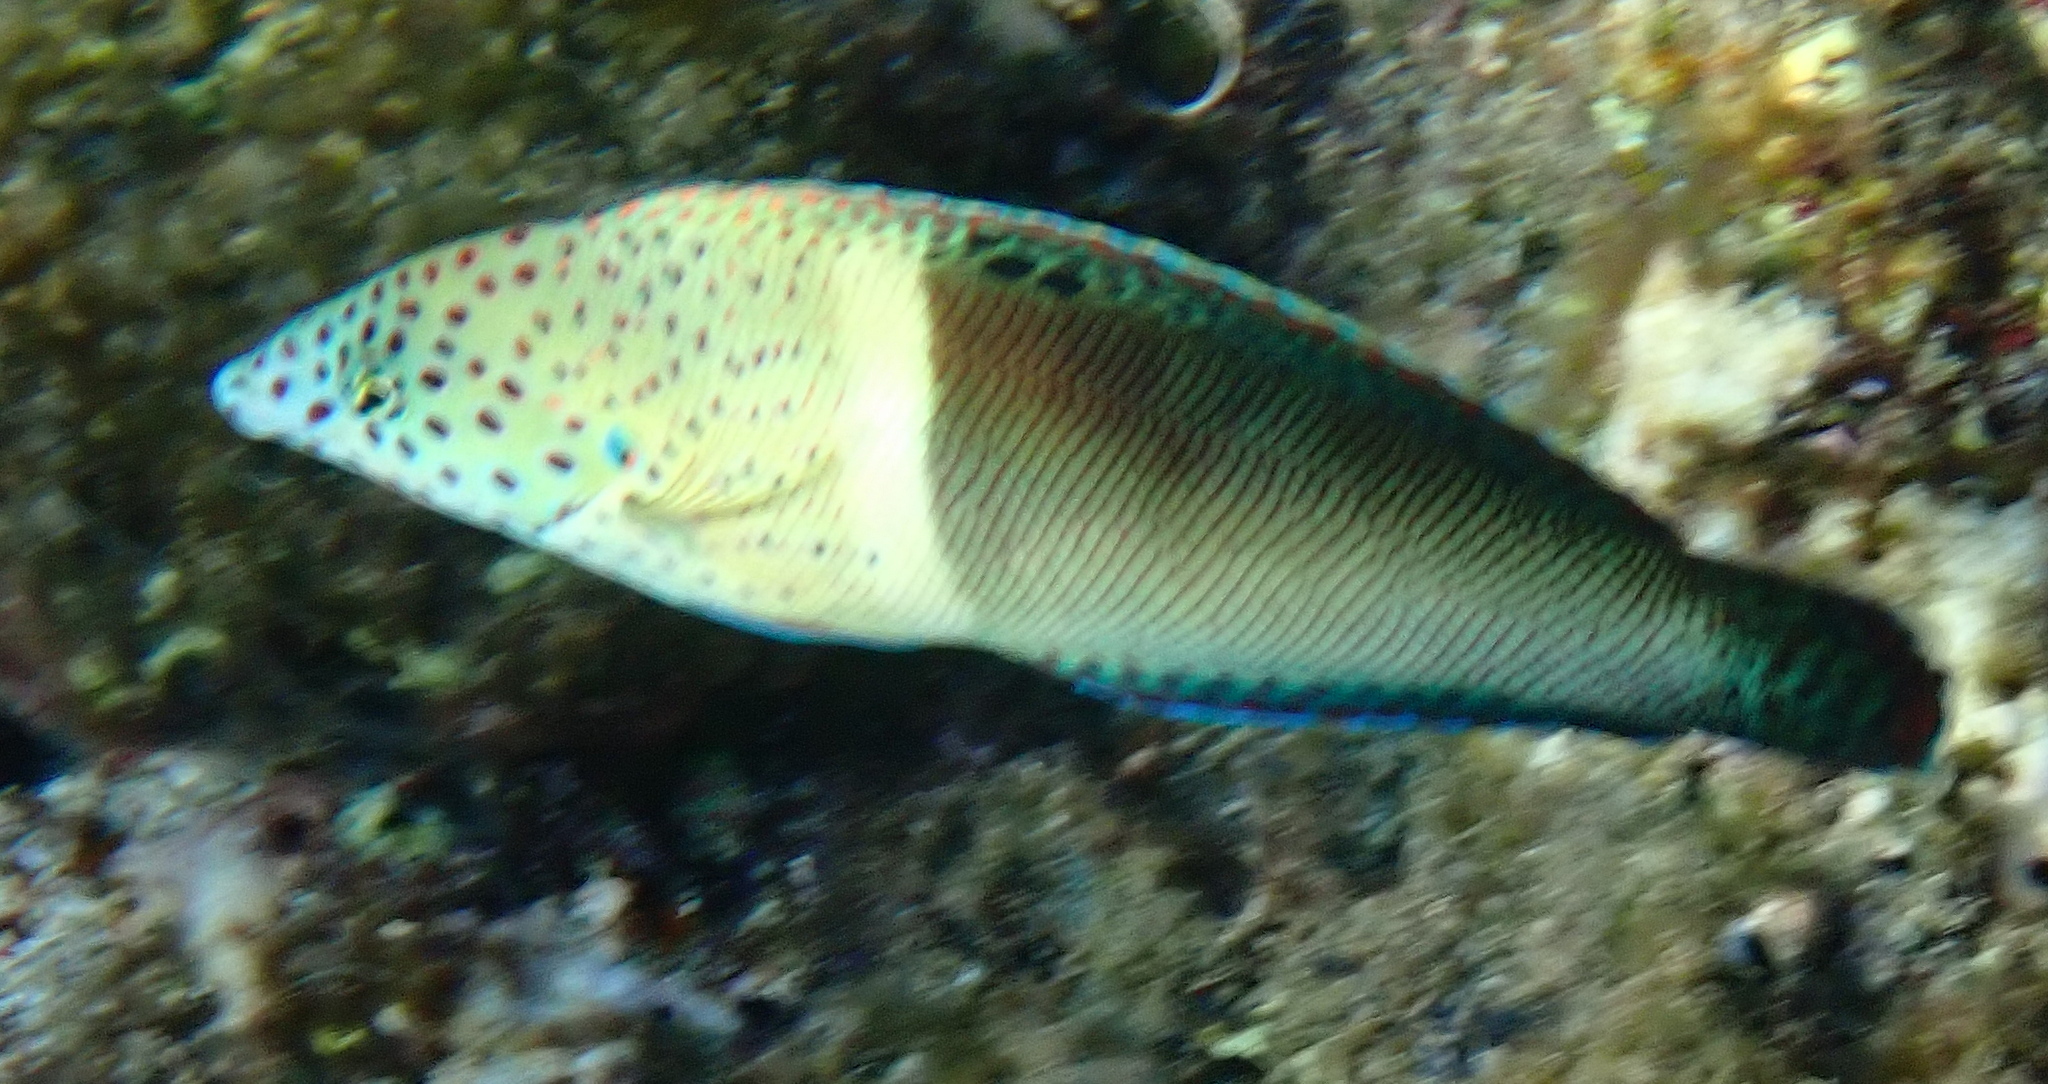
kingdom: Animalia
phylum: Chordata
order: Perciformes
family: Labridae
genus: Coris
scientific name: Coris aygula
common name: Clown coris
